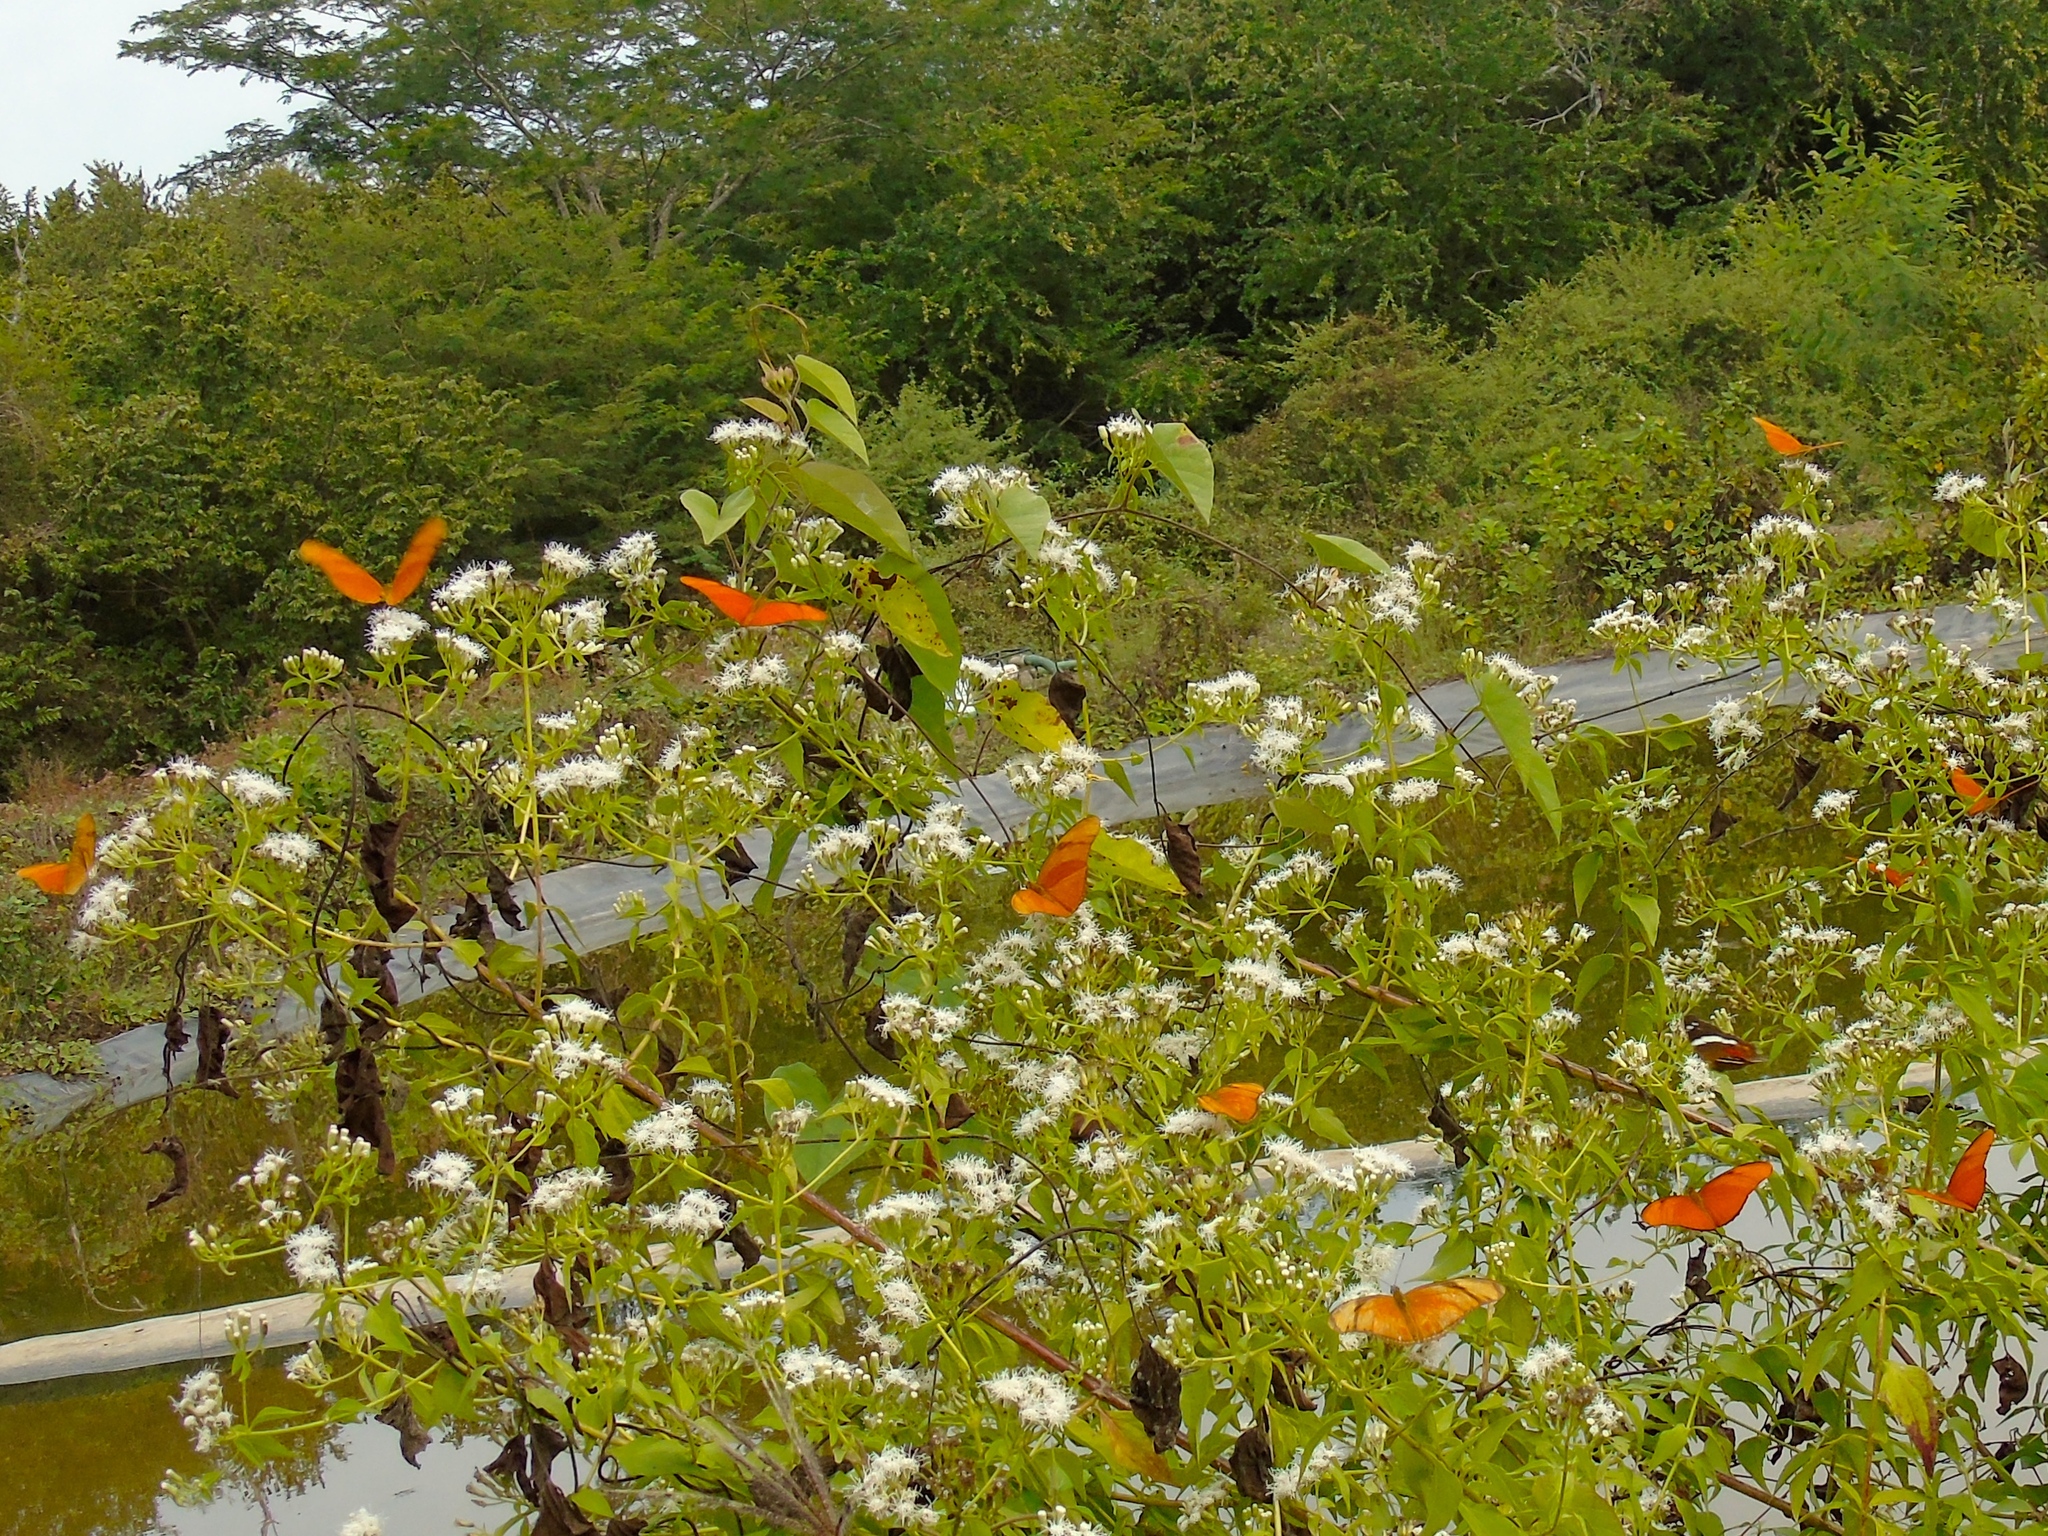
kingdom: Animalia
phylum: Arthropoda
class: Insecta
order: Lepidoptera
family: Nymphalidae
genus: Dryas
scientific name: Dryas iulia
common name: Flambeau
